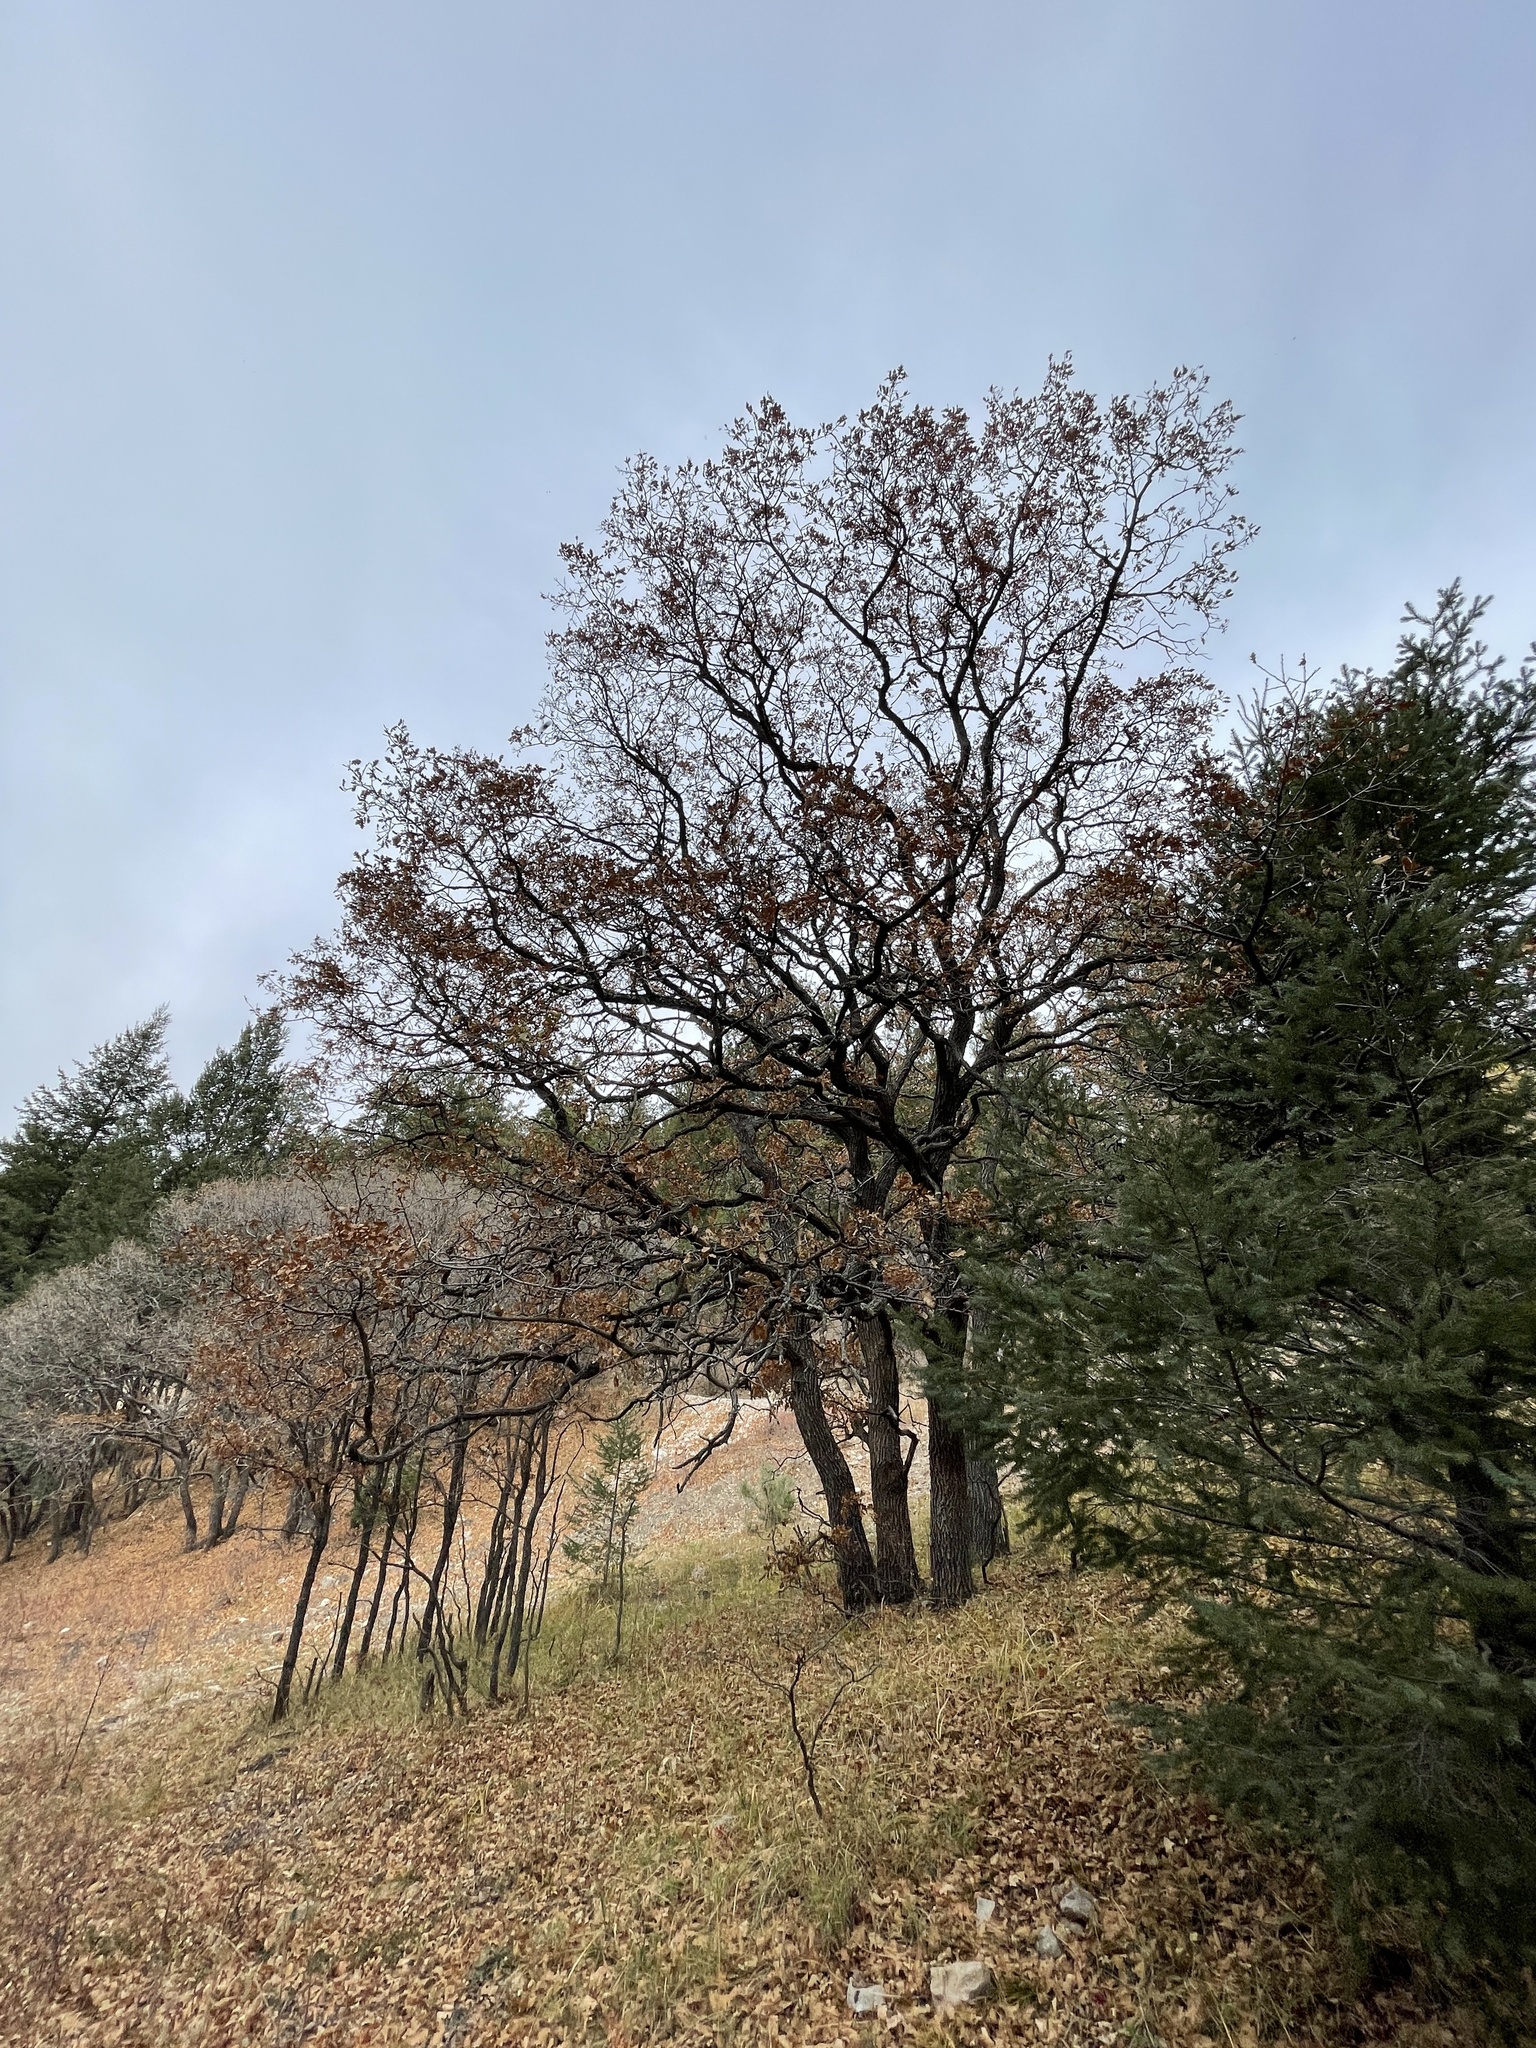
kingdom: Plantae
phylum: Tracheophyta
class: Magnoliopsida
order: Fagales
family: Fagaceae
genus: Quercus
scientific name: Quercus gambelii
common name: Gambel oak
